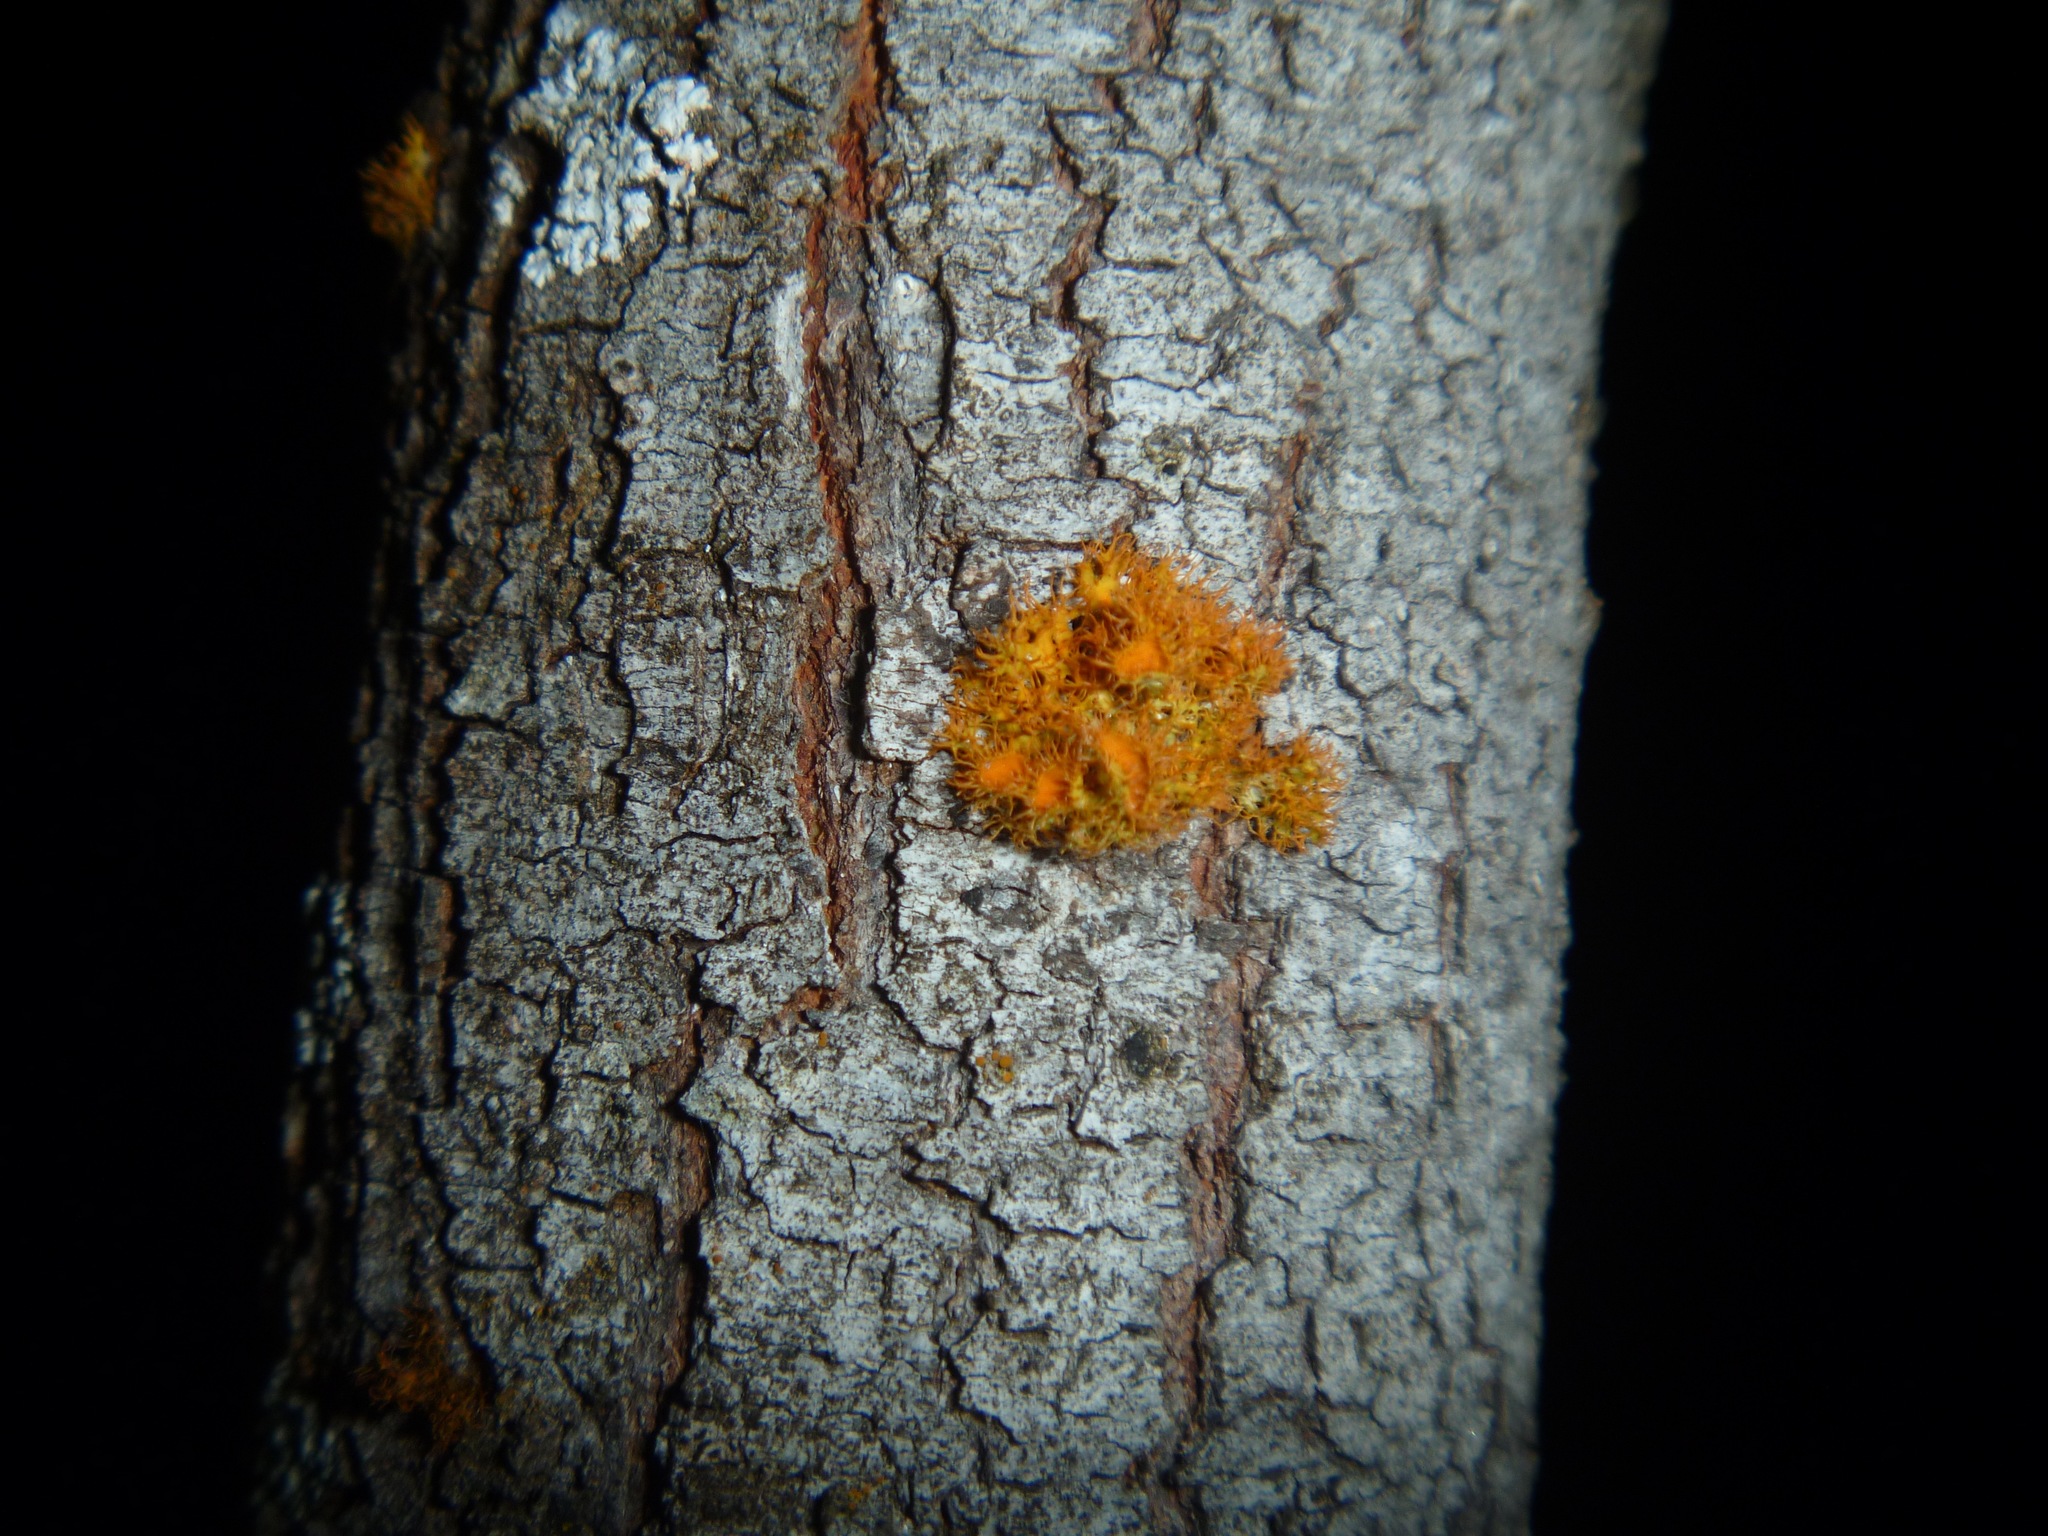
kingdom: Fungi
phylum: Ascomycota
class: Lecanoromycetes
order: Teloschistales
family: Teloschistaceae
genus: Niorma
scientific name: Niorma chrysophthalma
